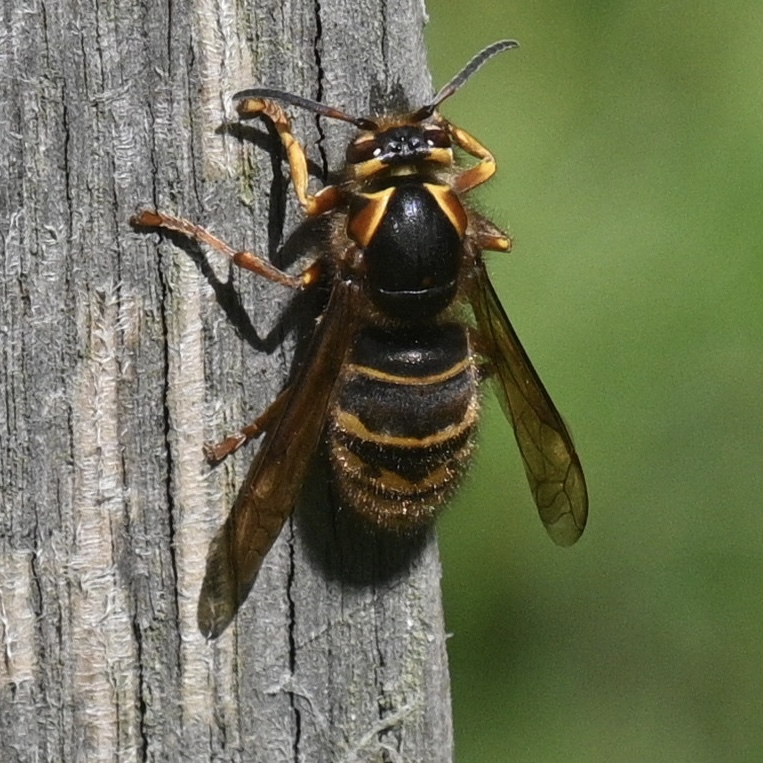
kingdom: Animalia
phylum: Arthropoda
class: Insecta
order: Hymenoptera
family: Vespidae
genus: Dolichovespula
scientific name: Dolichovespula media
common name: Median wasp
